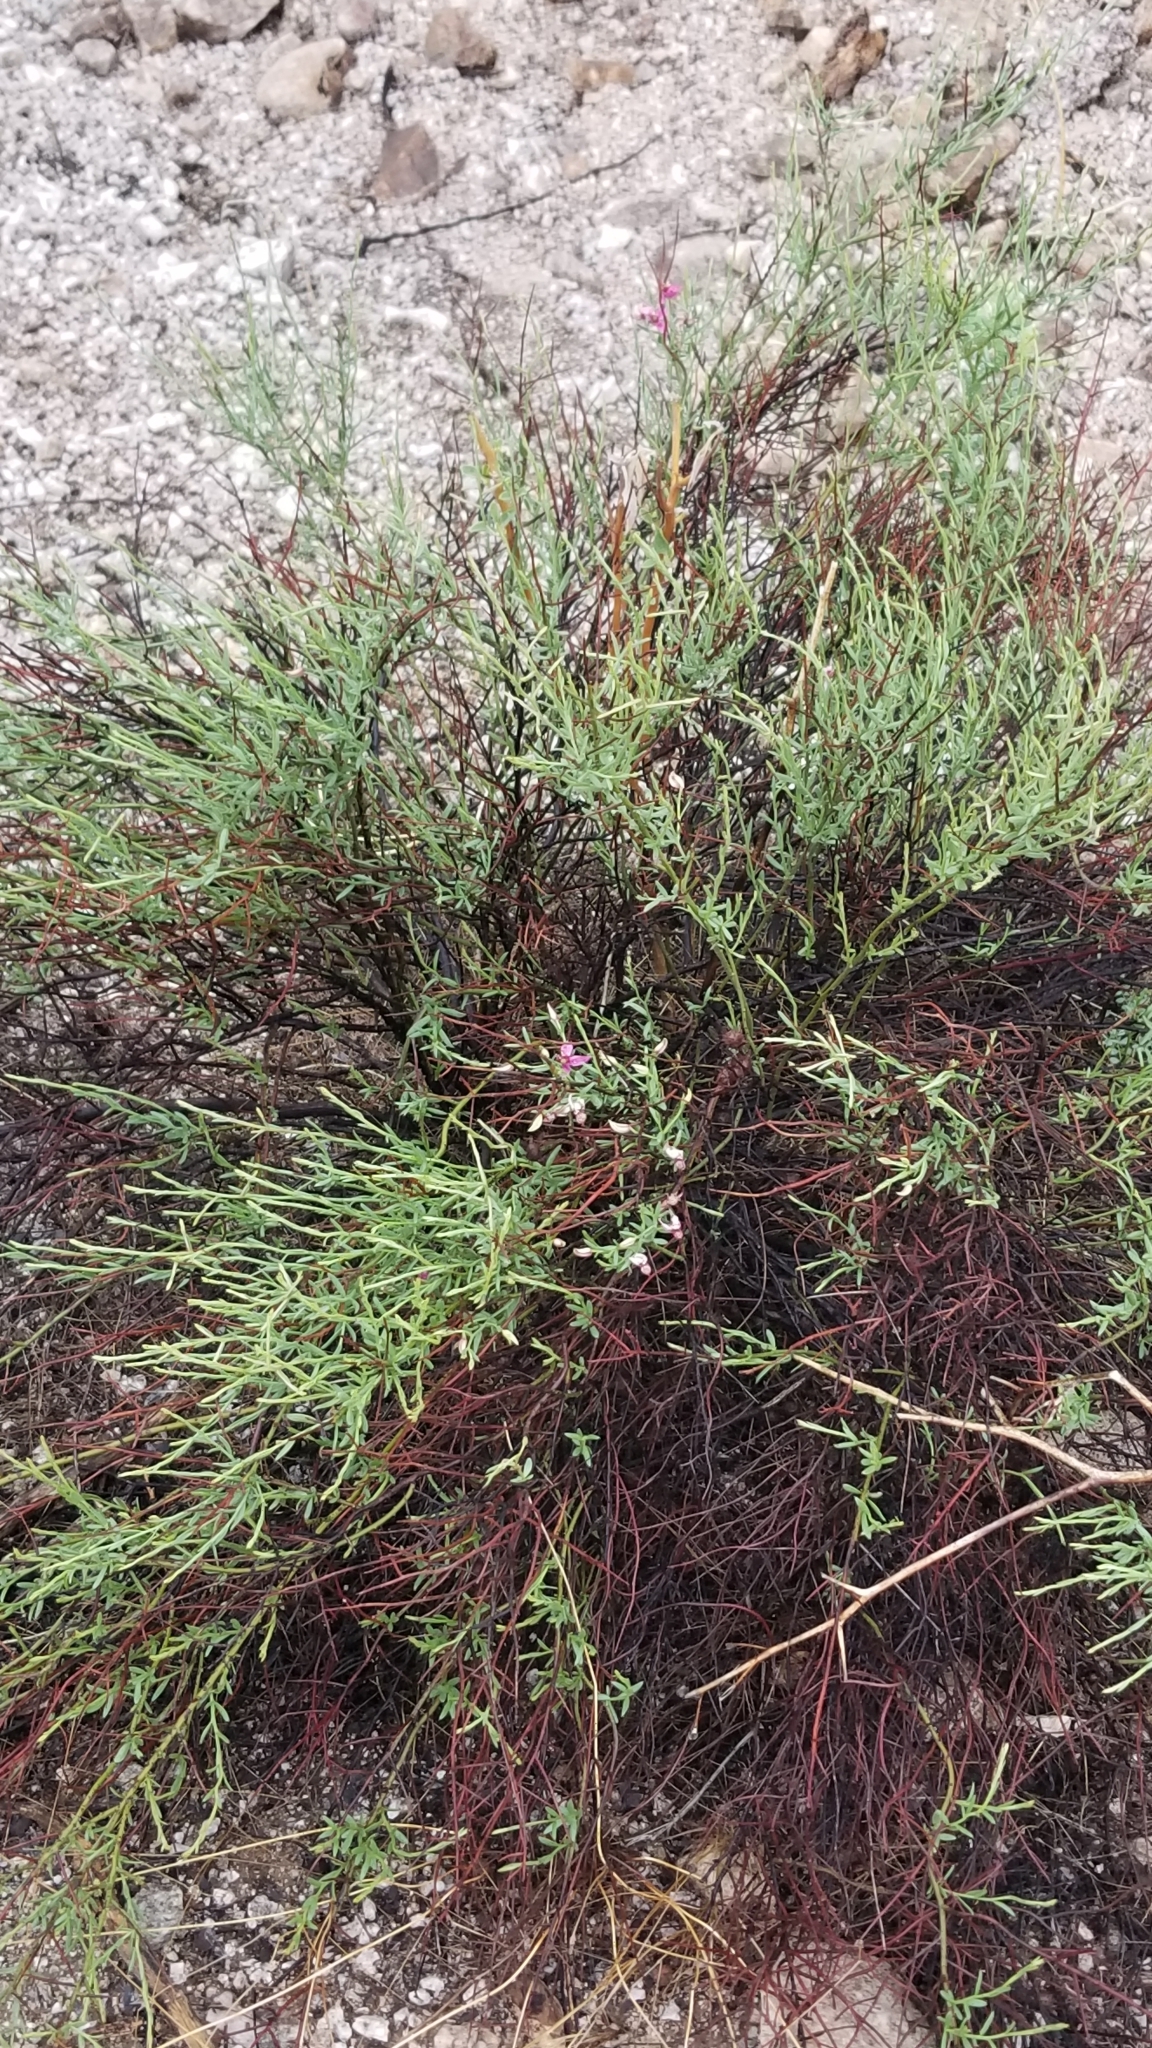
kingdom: Plantae
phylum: Tracheophyta
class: Magnoliopsida
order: Zygophyllales
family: Krameriaceae
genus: Krameria
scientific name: Krameria bicolor
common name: White ratany
